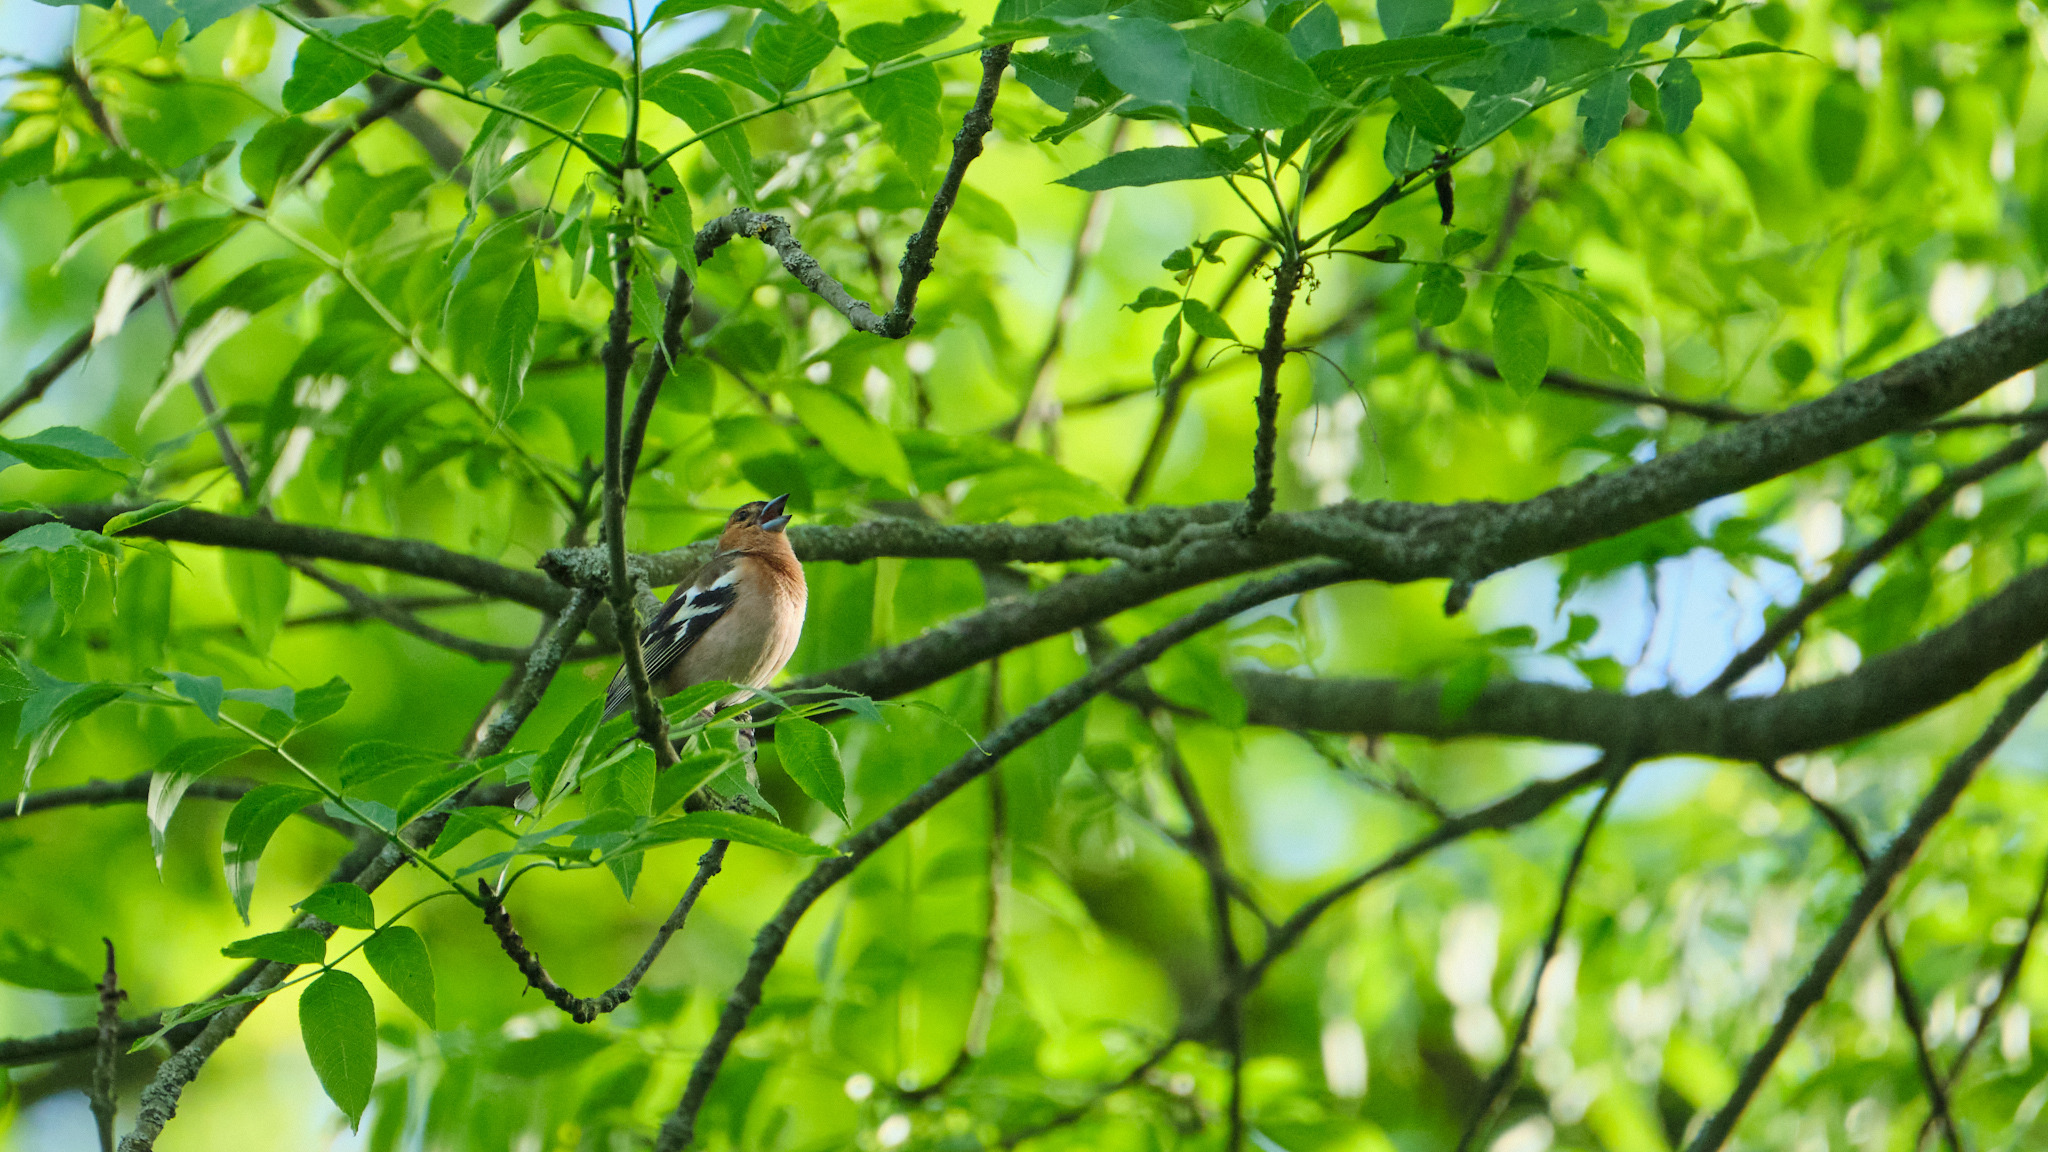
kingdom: Animalia
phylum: Chordata
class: Aves
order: Passeriformes
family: Fringillidae
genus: Fringilla
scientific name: Fringilla coelebs
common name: Common chaffinch
